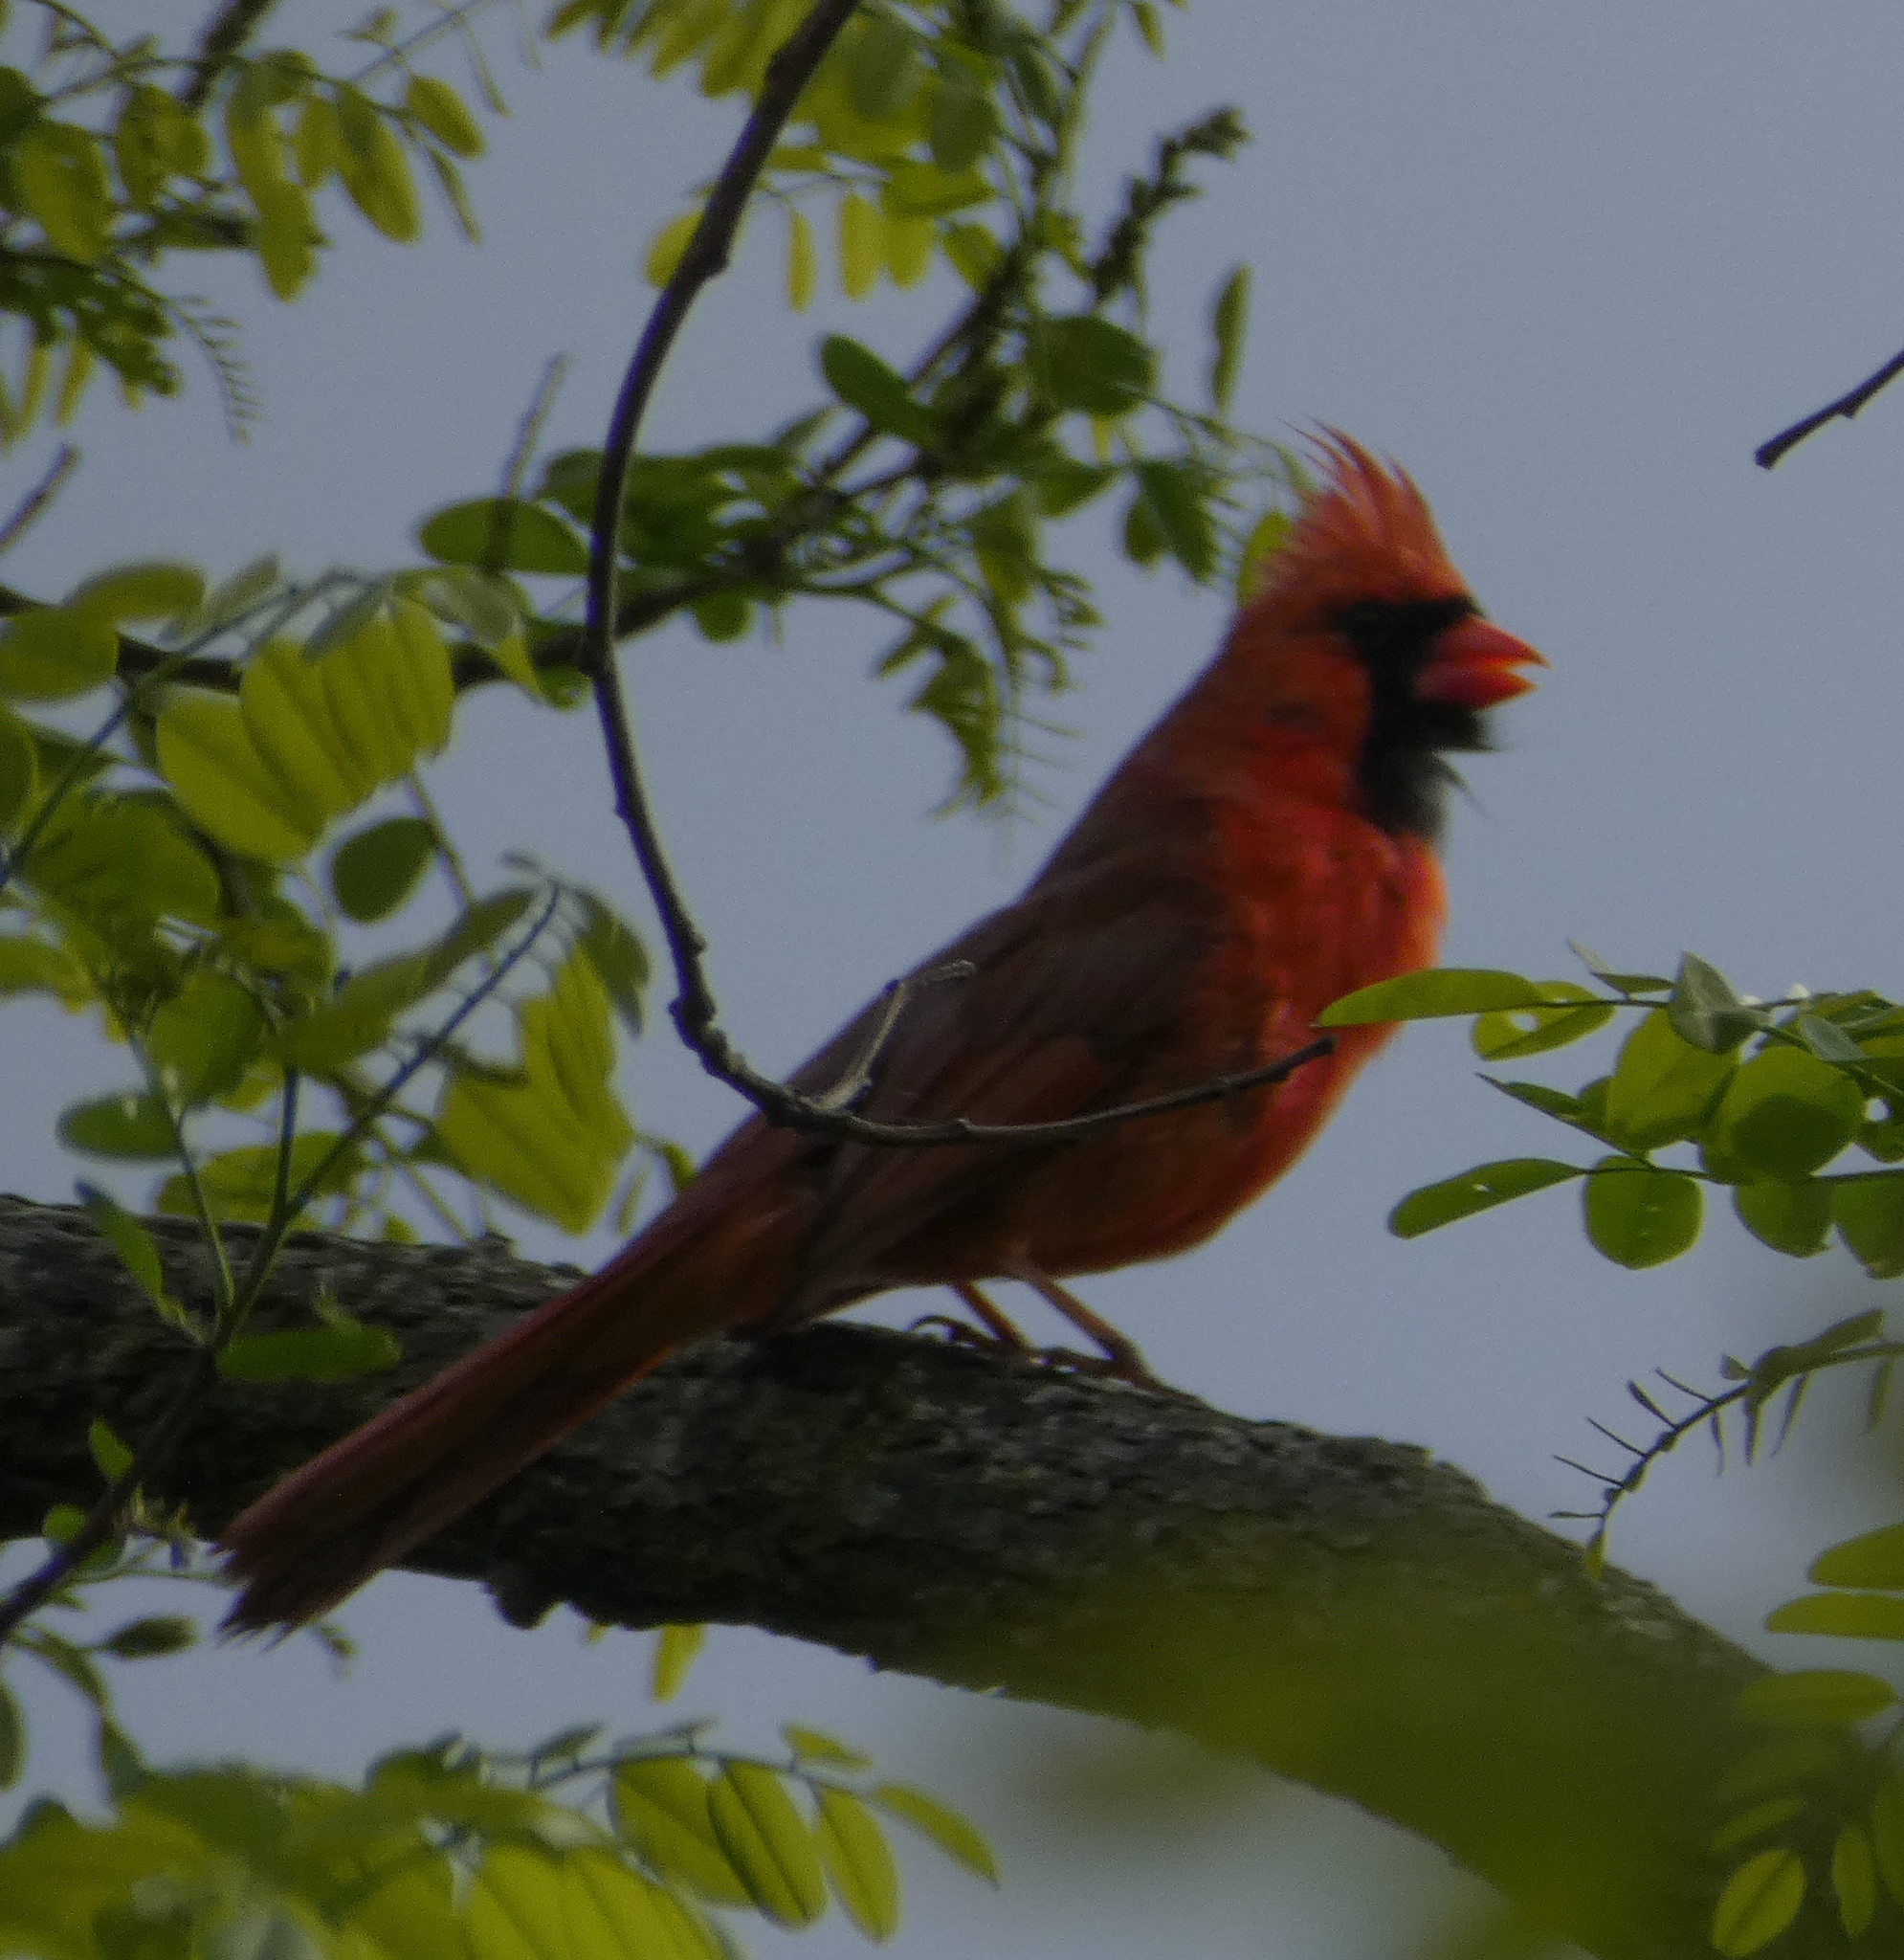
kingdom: Animalia
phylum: Chordata
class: Aves
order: Passeriformes
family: Cardinalidae
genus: Cardinalis
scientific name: Cardinalis cardinalis
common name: Northern cardinal
